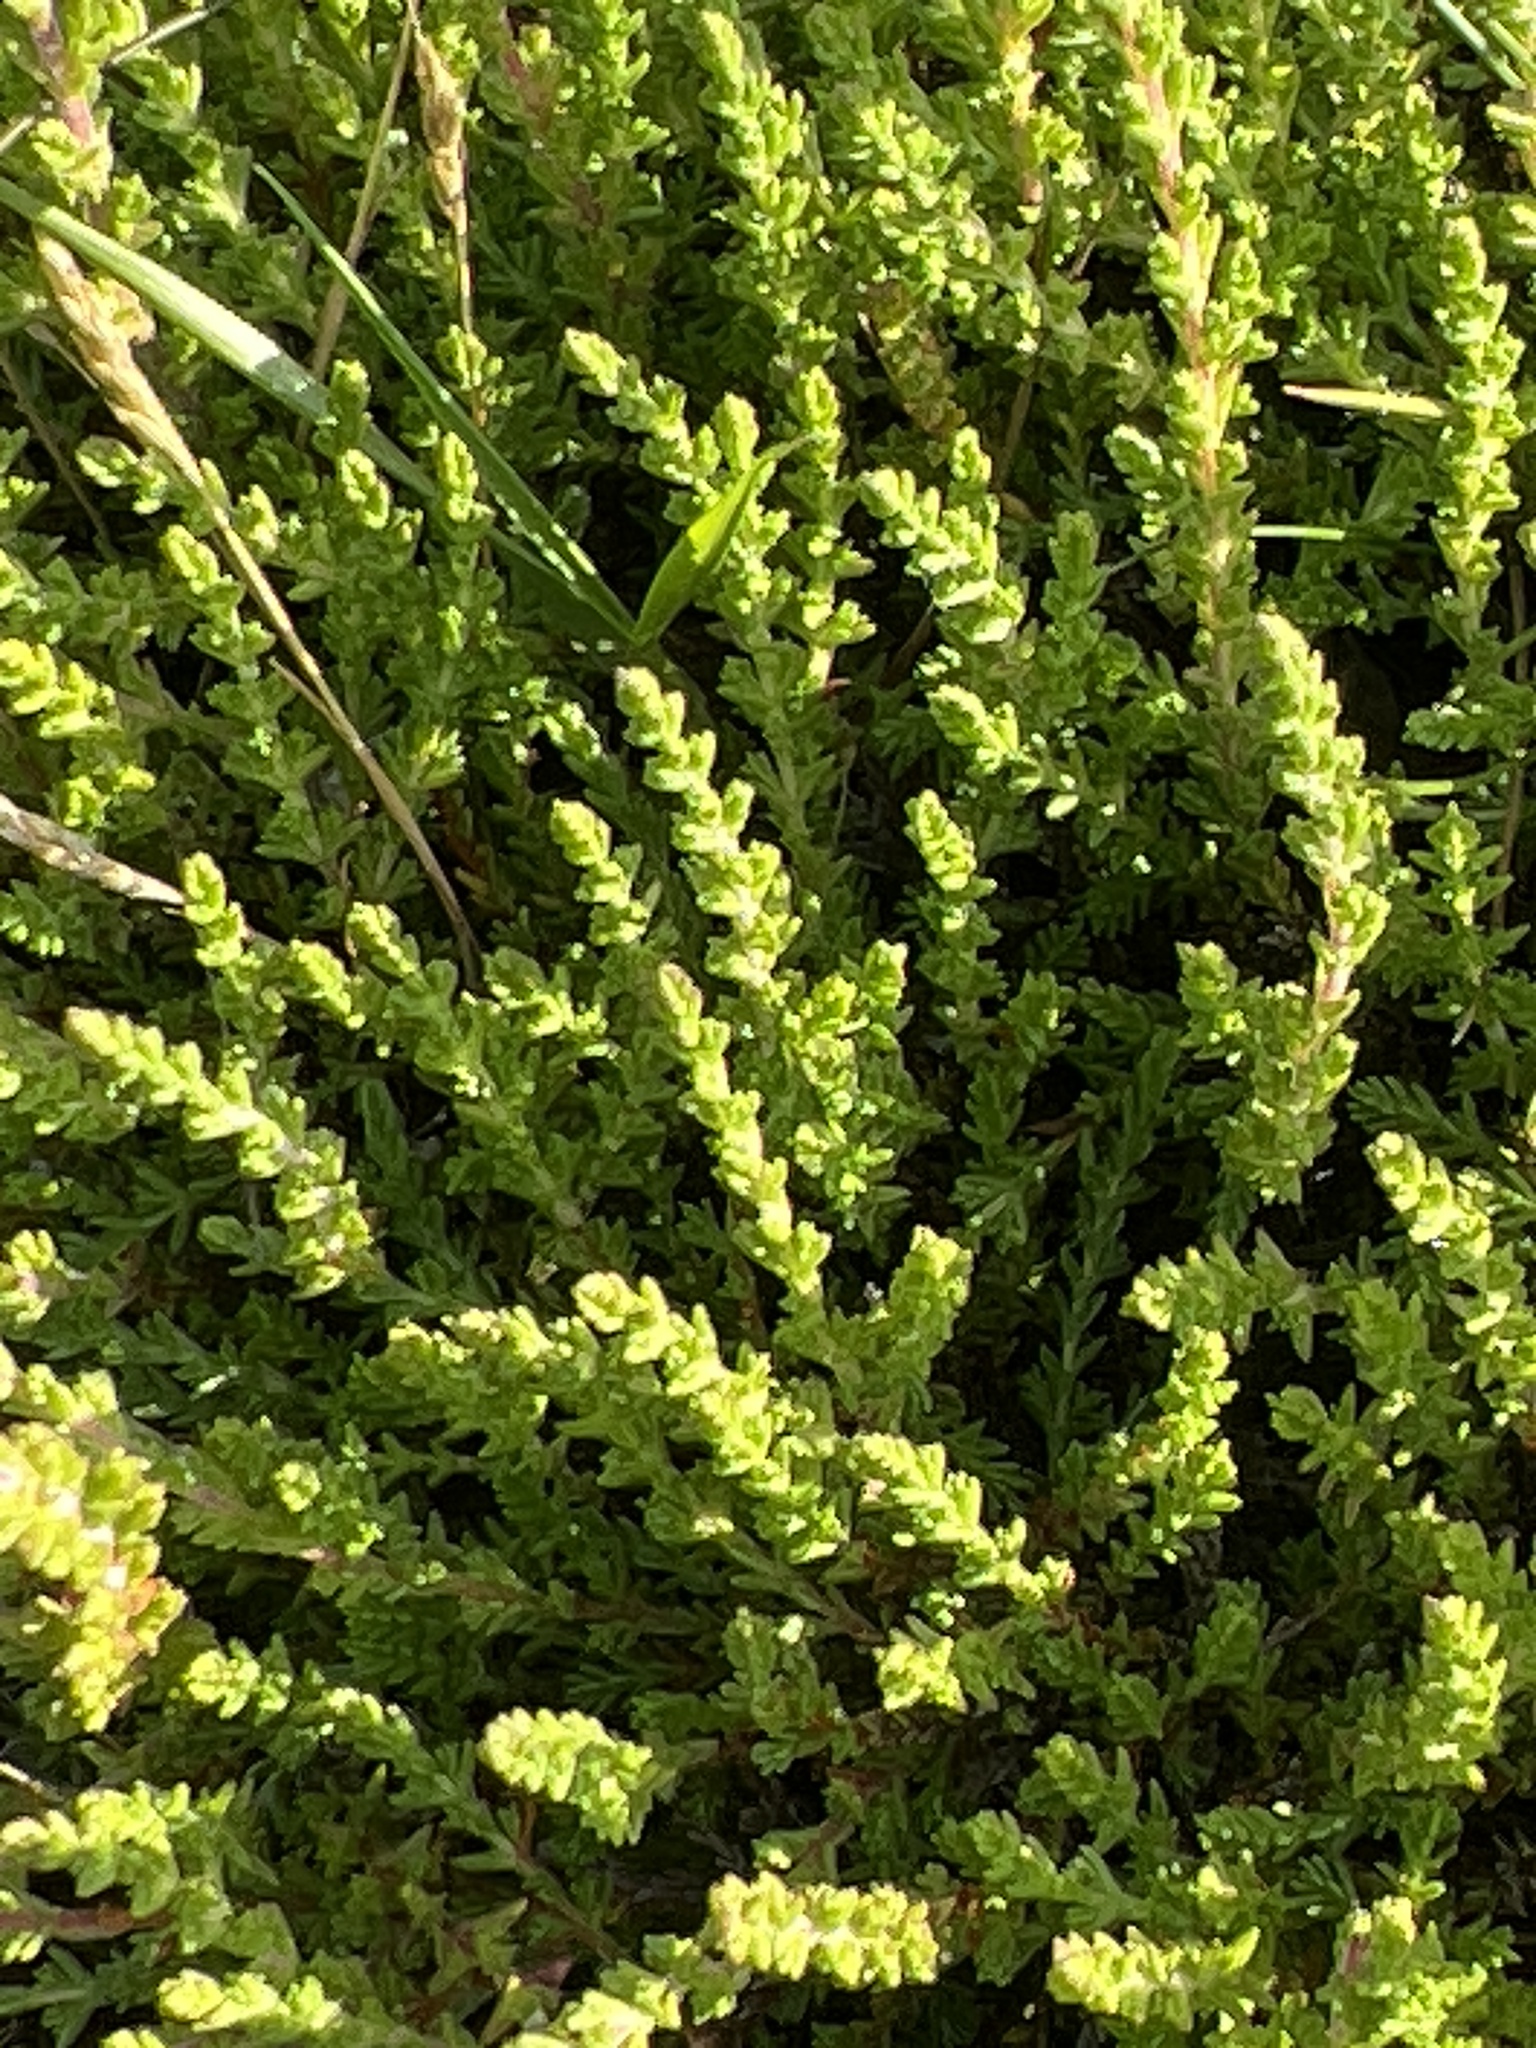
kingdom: Plantae
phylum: Tracheophyta
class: Magnoliopsida
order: Ericales
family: Ericaceae
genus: Calluna
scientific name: Calluna vulgaris
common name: Heather
